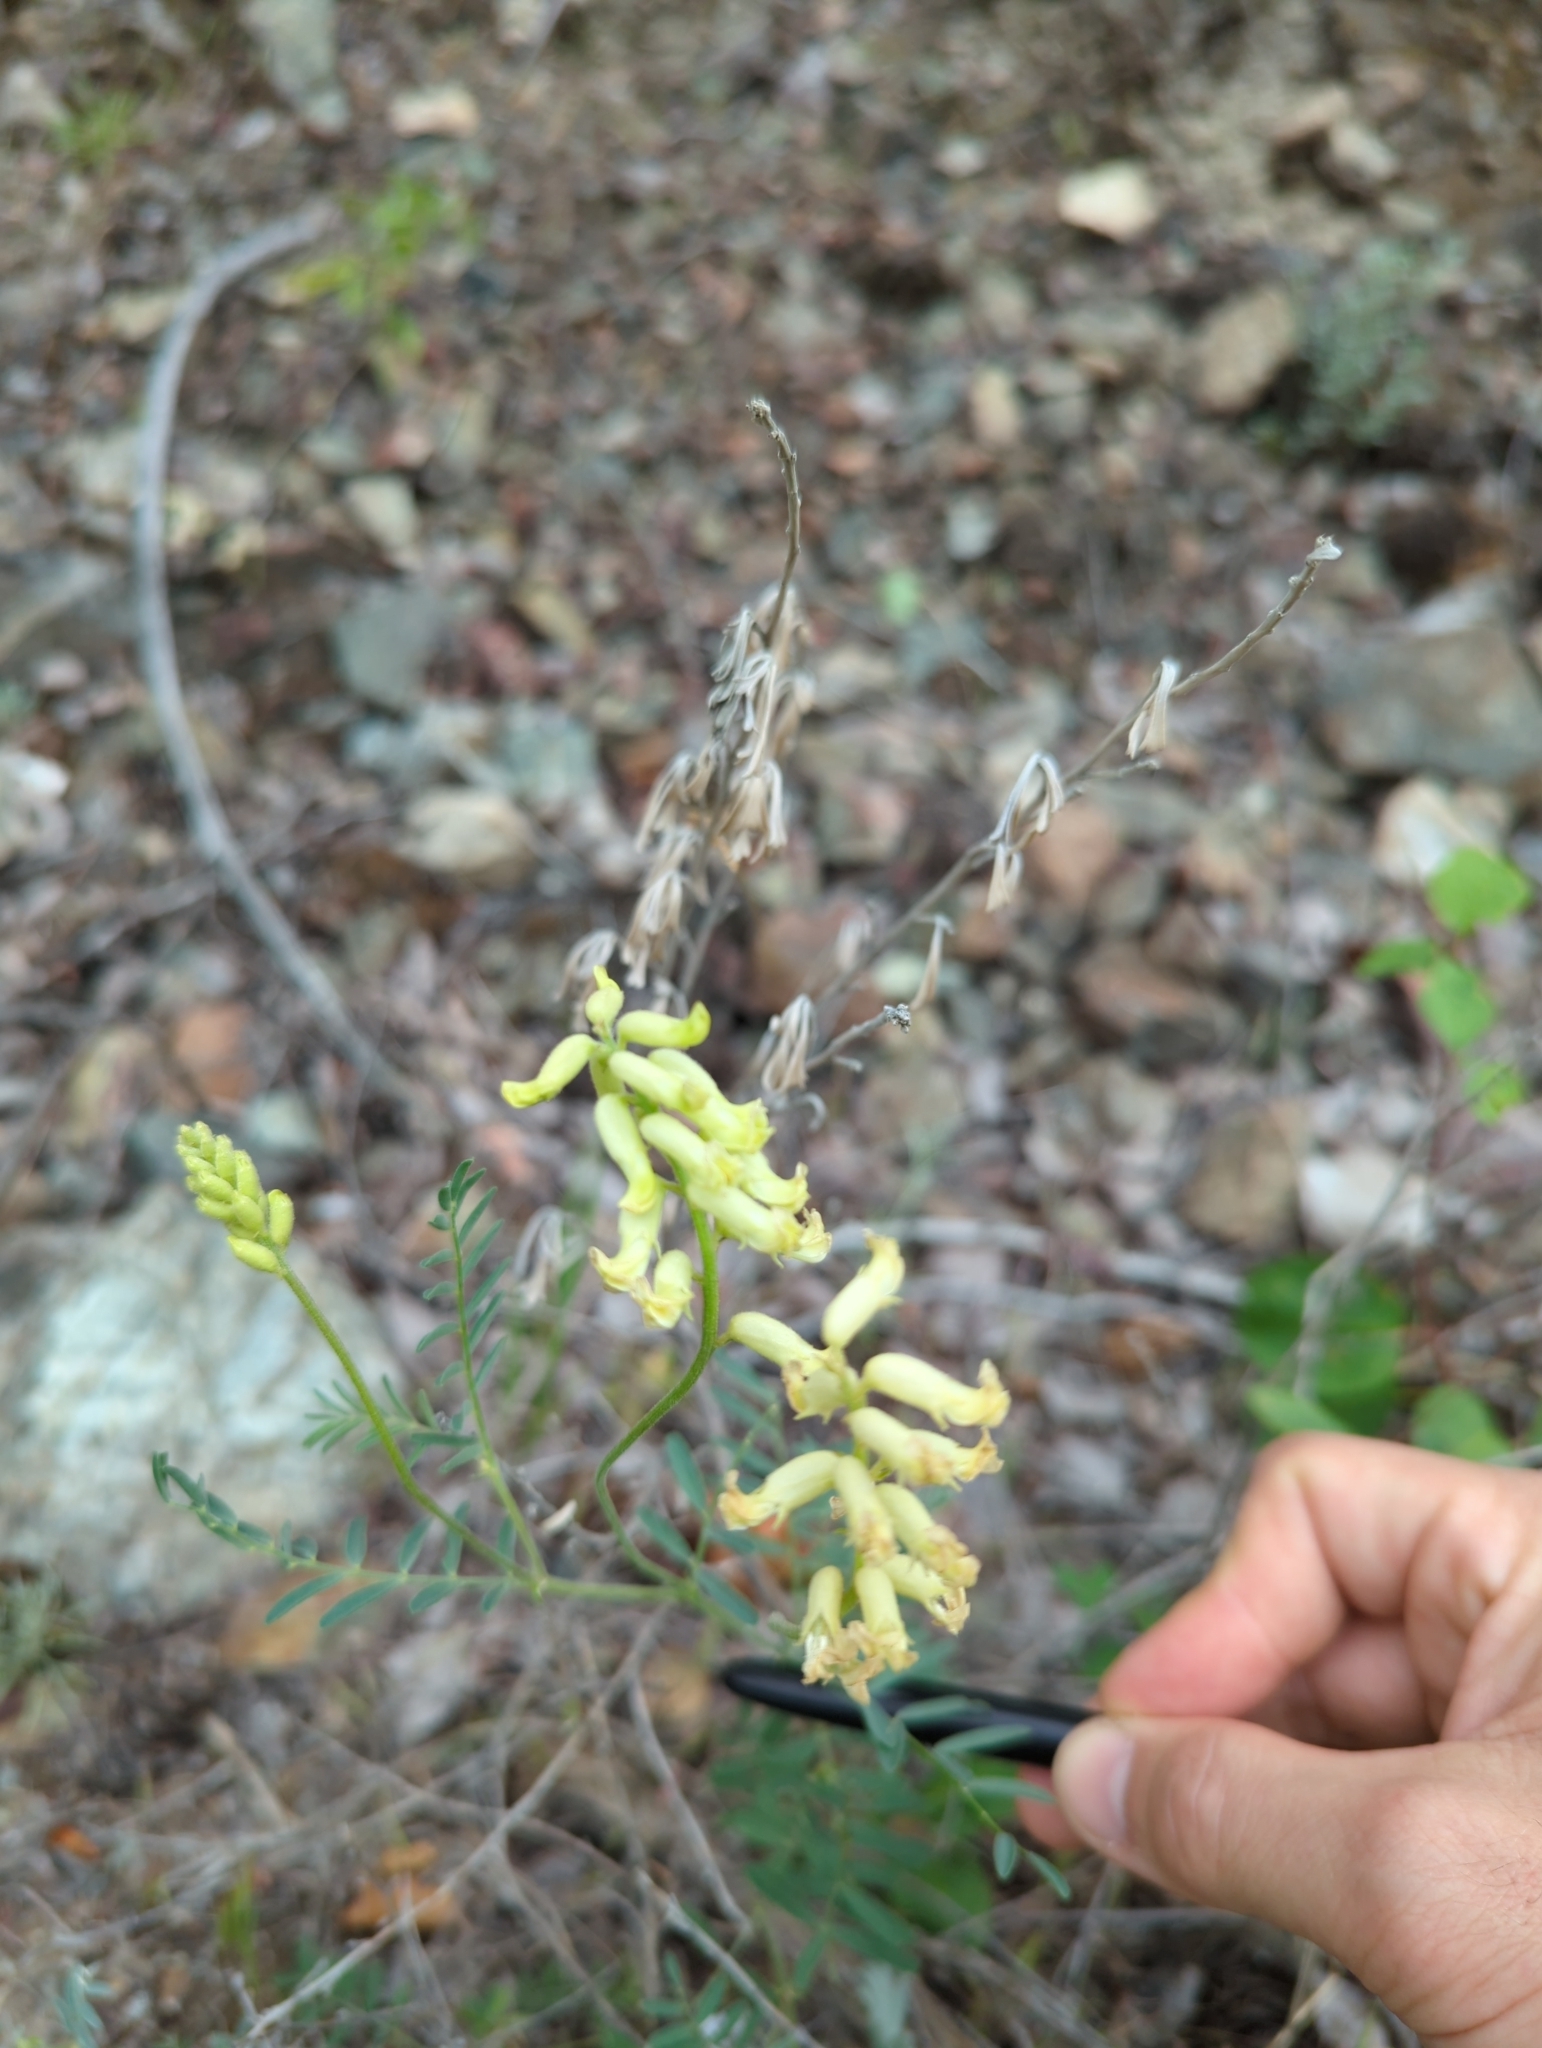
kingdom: Plantae
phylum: Tracheophyta
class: Magnoliopsida
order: Fabales
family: Fabaceae
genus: Astragalus
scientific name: Astragalus collinus
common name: Hill milk-vetch
